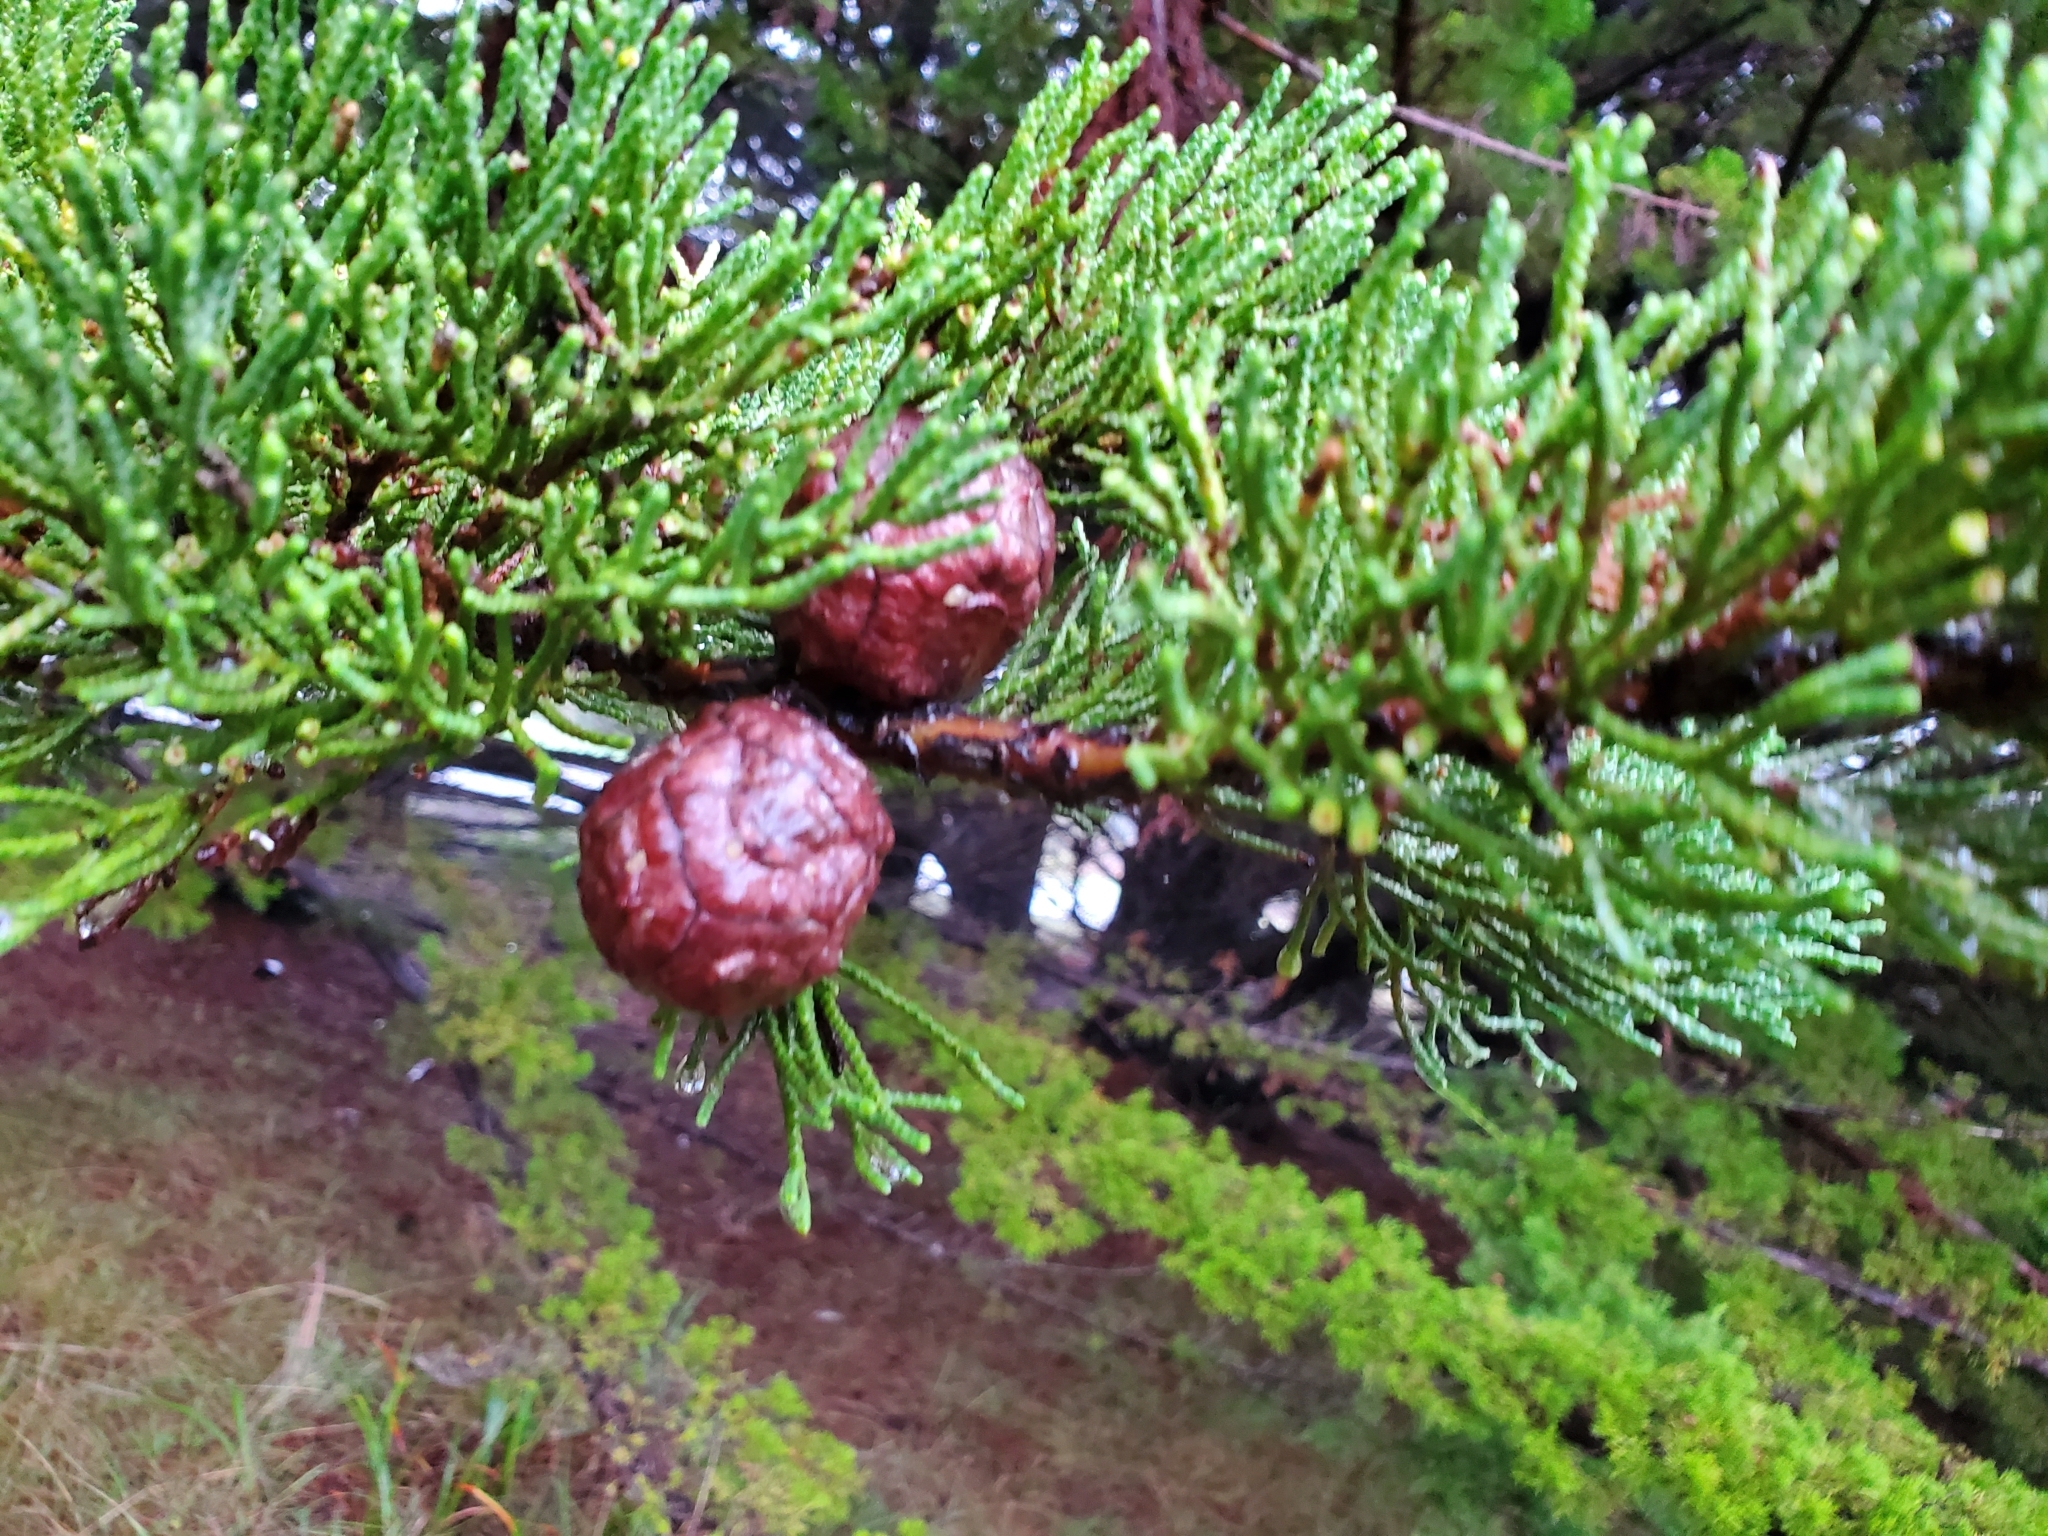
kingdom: Plantae
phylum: Tracheophyta
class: Pinopsida
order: Pinales
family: Cupressaceae
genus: Cupressus
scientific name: Cupressus macrocarpa
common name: Monterey cypress
